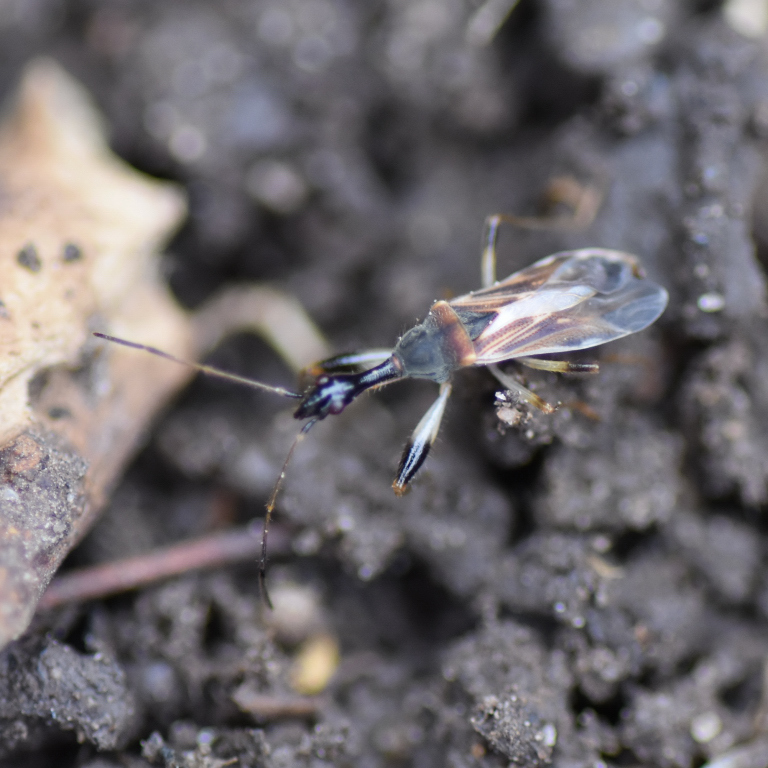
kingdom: Animalia
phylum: Arthropoda
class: Insecta
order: Hemiptera
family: Rhyparochromidae
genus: Myodocha
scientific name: Myodocha serripes
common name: Long-necked seed bug
